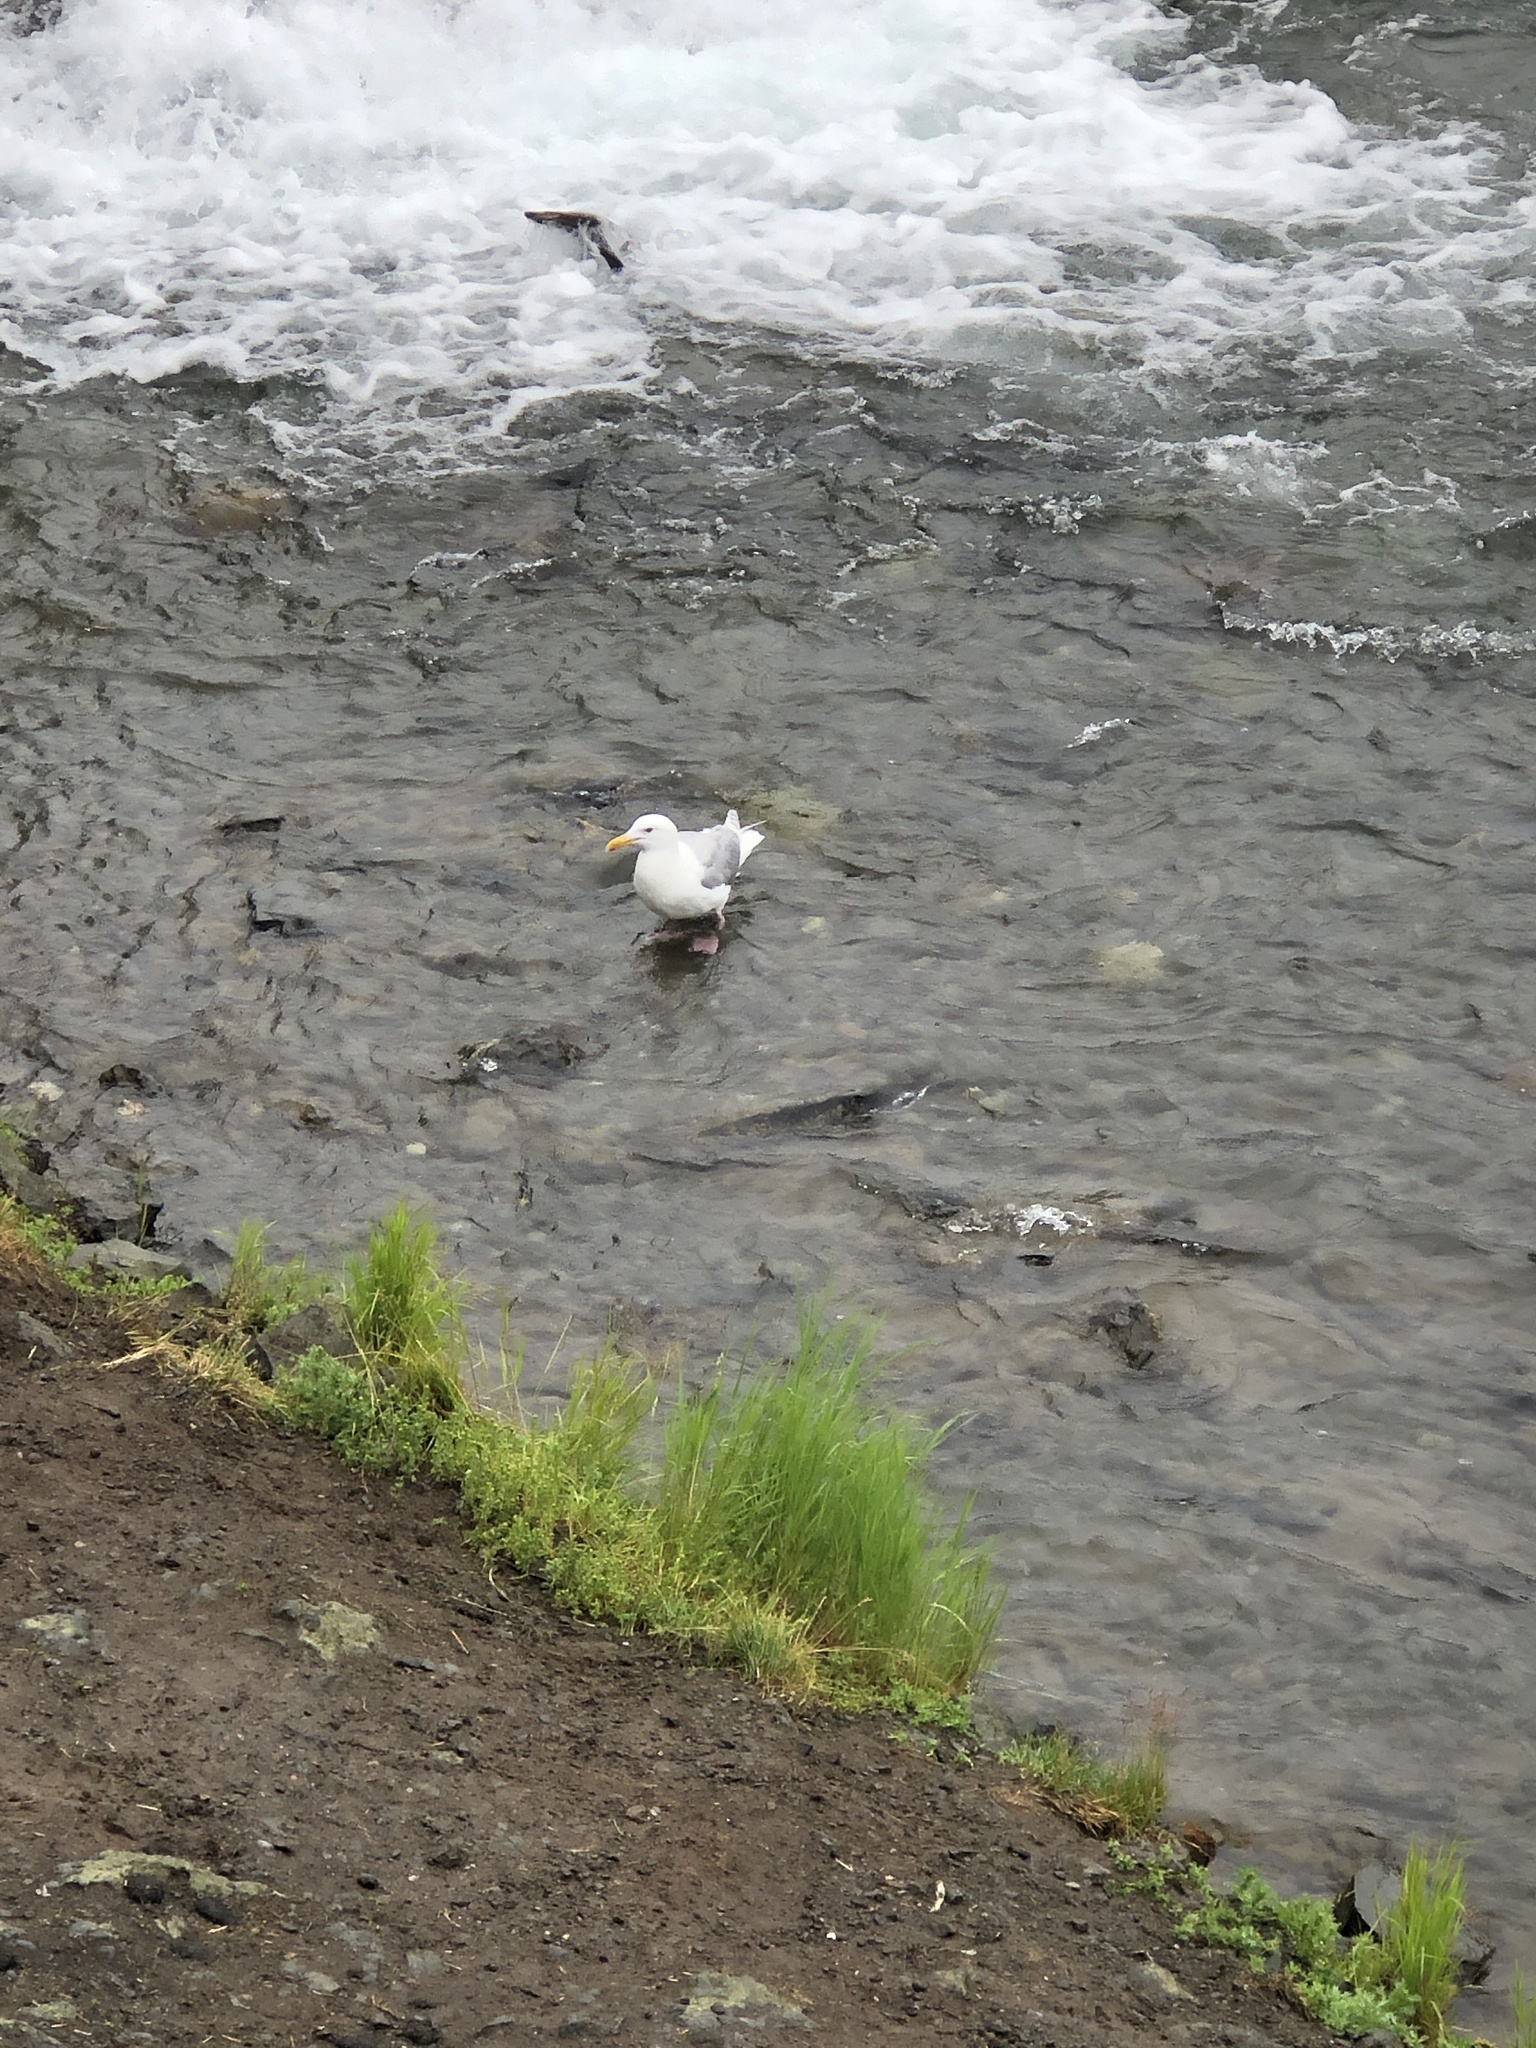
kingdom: Animalia
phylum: Chordata
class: Aves
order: Charadriiformes
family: Laridae
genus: Larus
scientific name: Larus glaucescens
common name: Glaucous-winged gull
